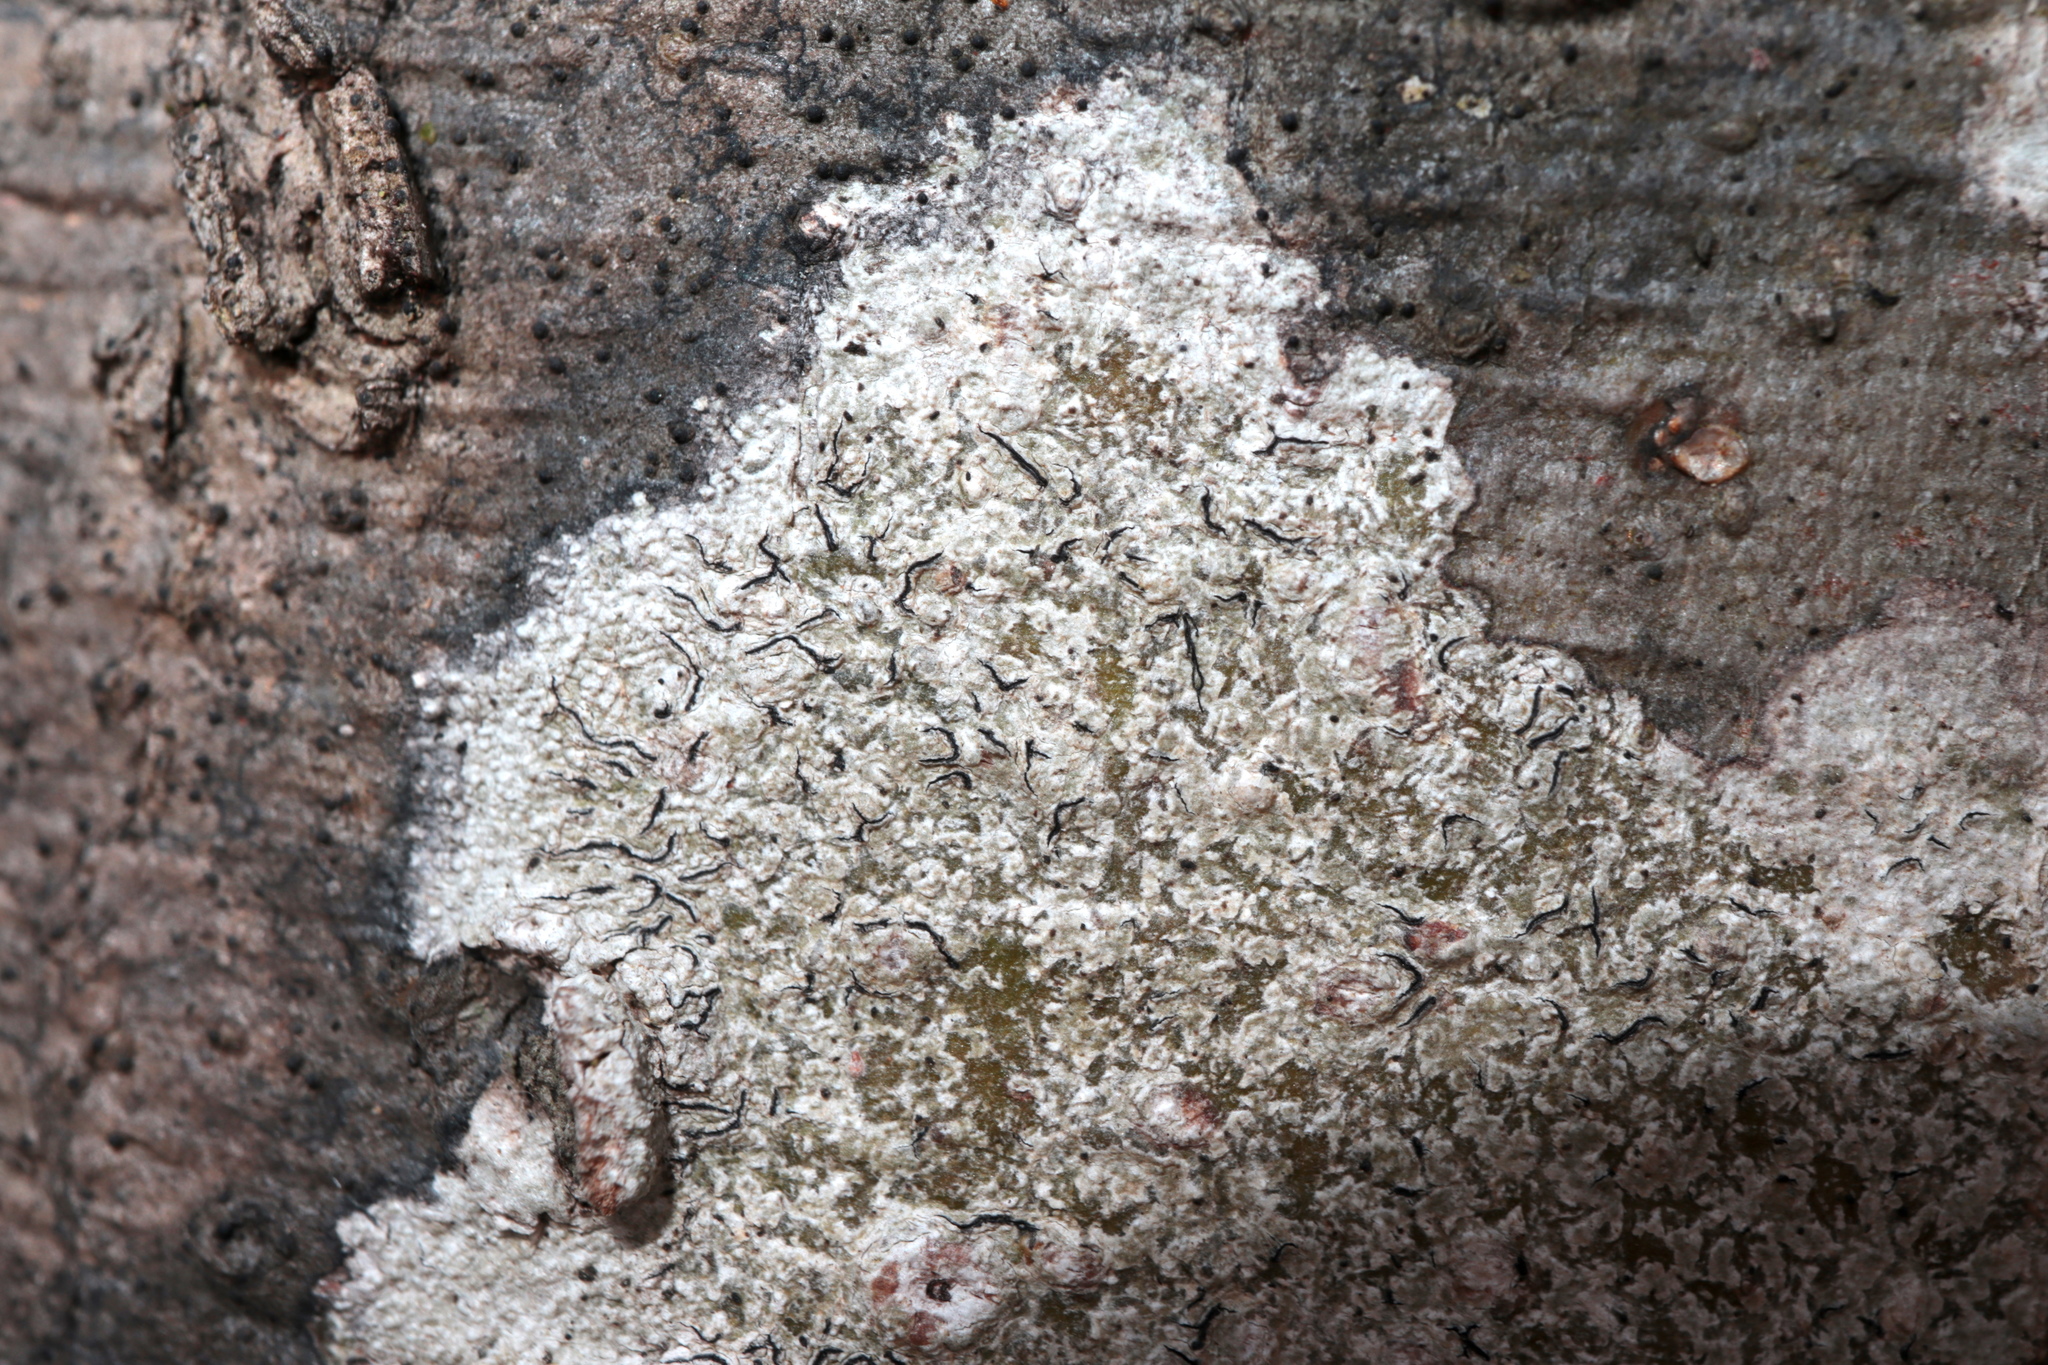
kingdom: Fungi
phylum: Ascomycota
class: Lecanoromycetes
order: Ostropales
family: Graphidaceae
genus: Graphis
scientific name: Graphis scripta
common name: Script lichen
